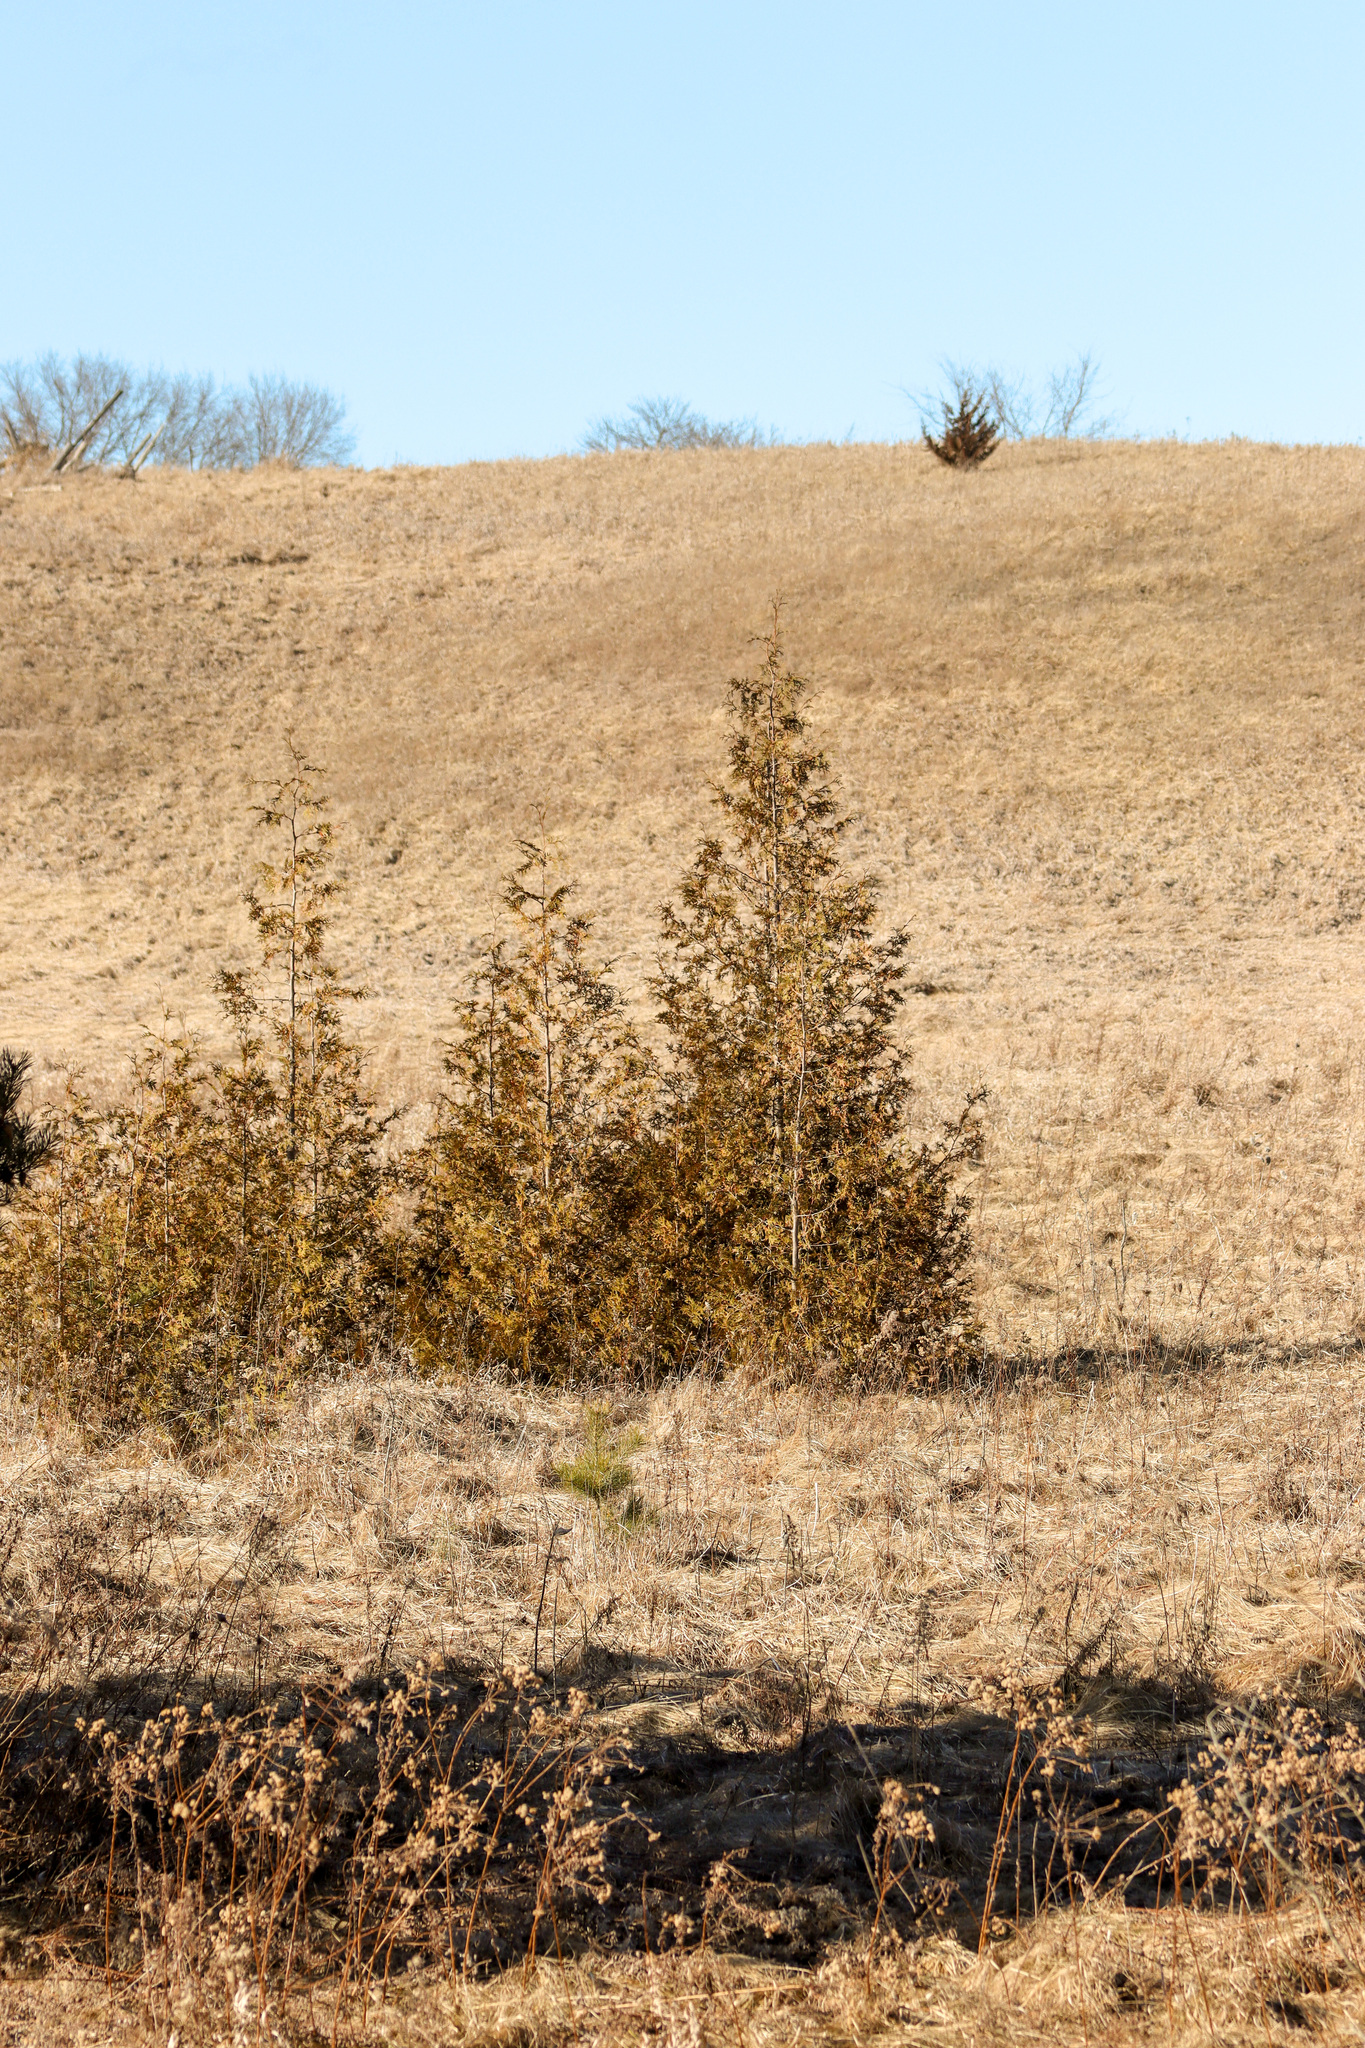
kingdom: Plantae
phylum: Tracheophyta
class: Pinopsida
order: Pinales
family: Cupressaceae
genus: Thuja
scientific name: Thuja occidentalis
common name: Northern white-cedar
